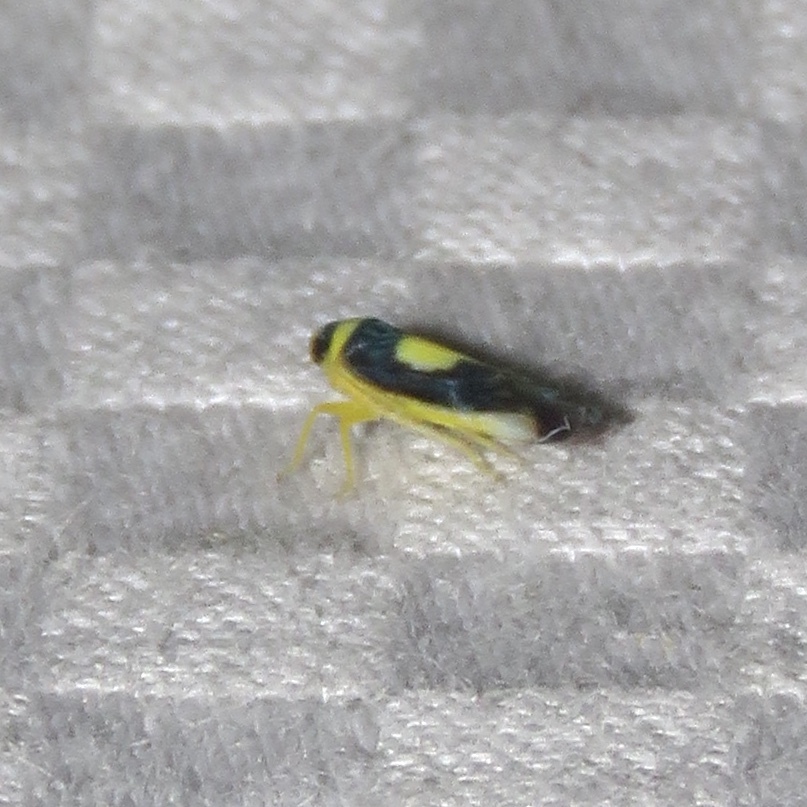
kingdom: Animalia
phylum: Arthropoda
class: Insecta
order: Hemiptera
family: Cicadellidae
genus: Colladonus
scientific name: Colladonus clitellarius
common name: The saddleback leafhopper
